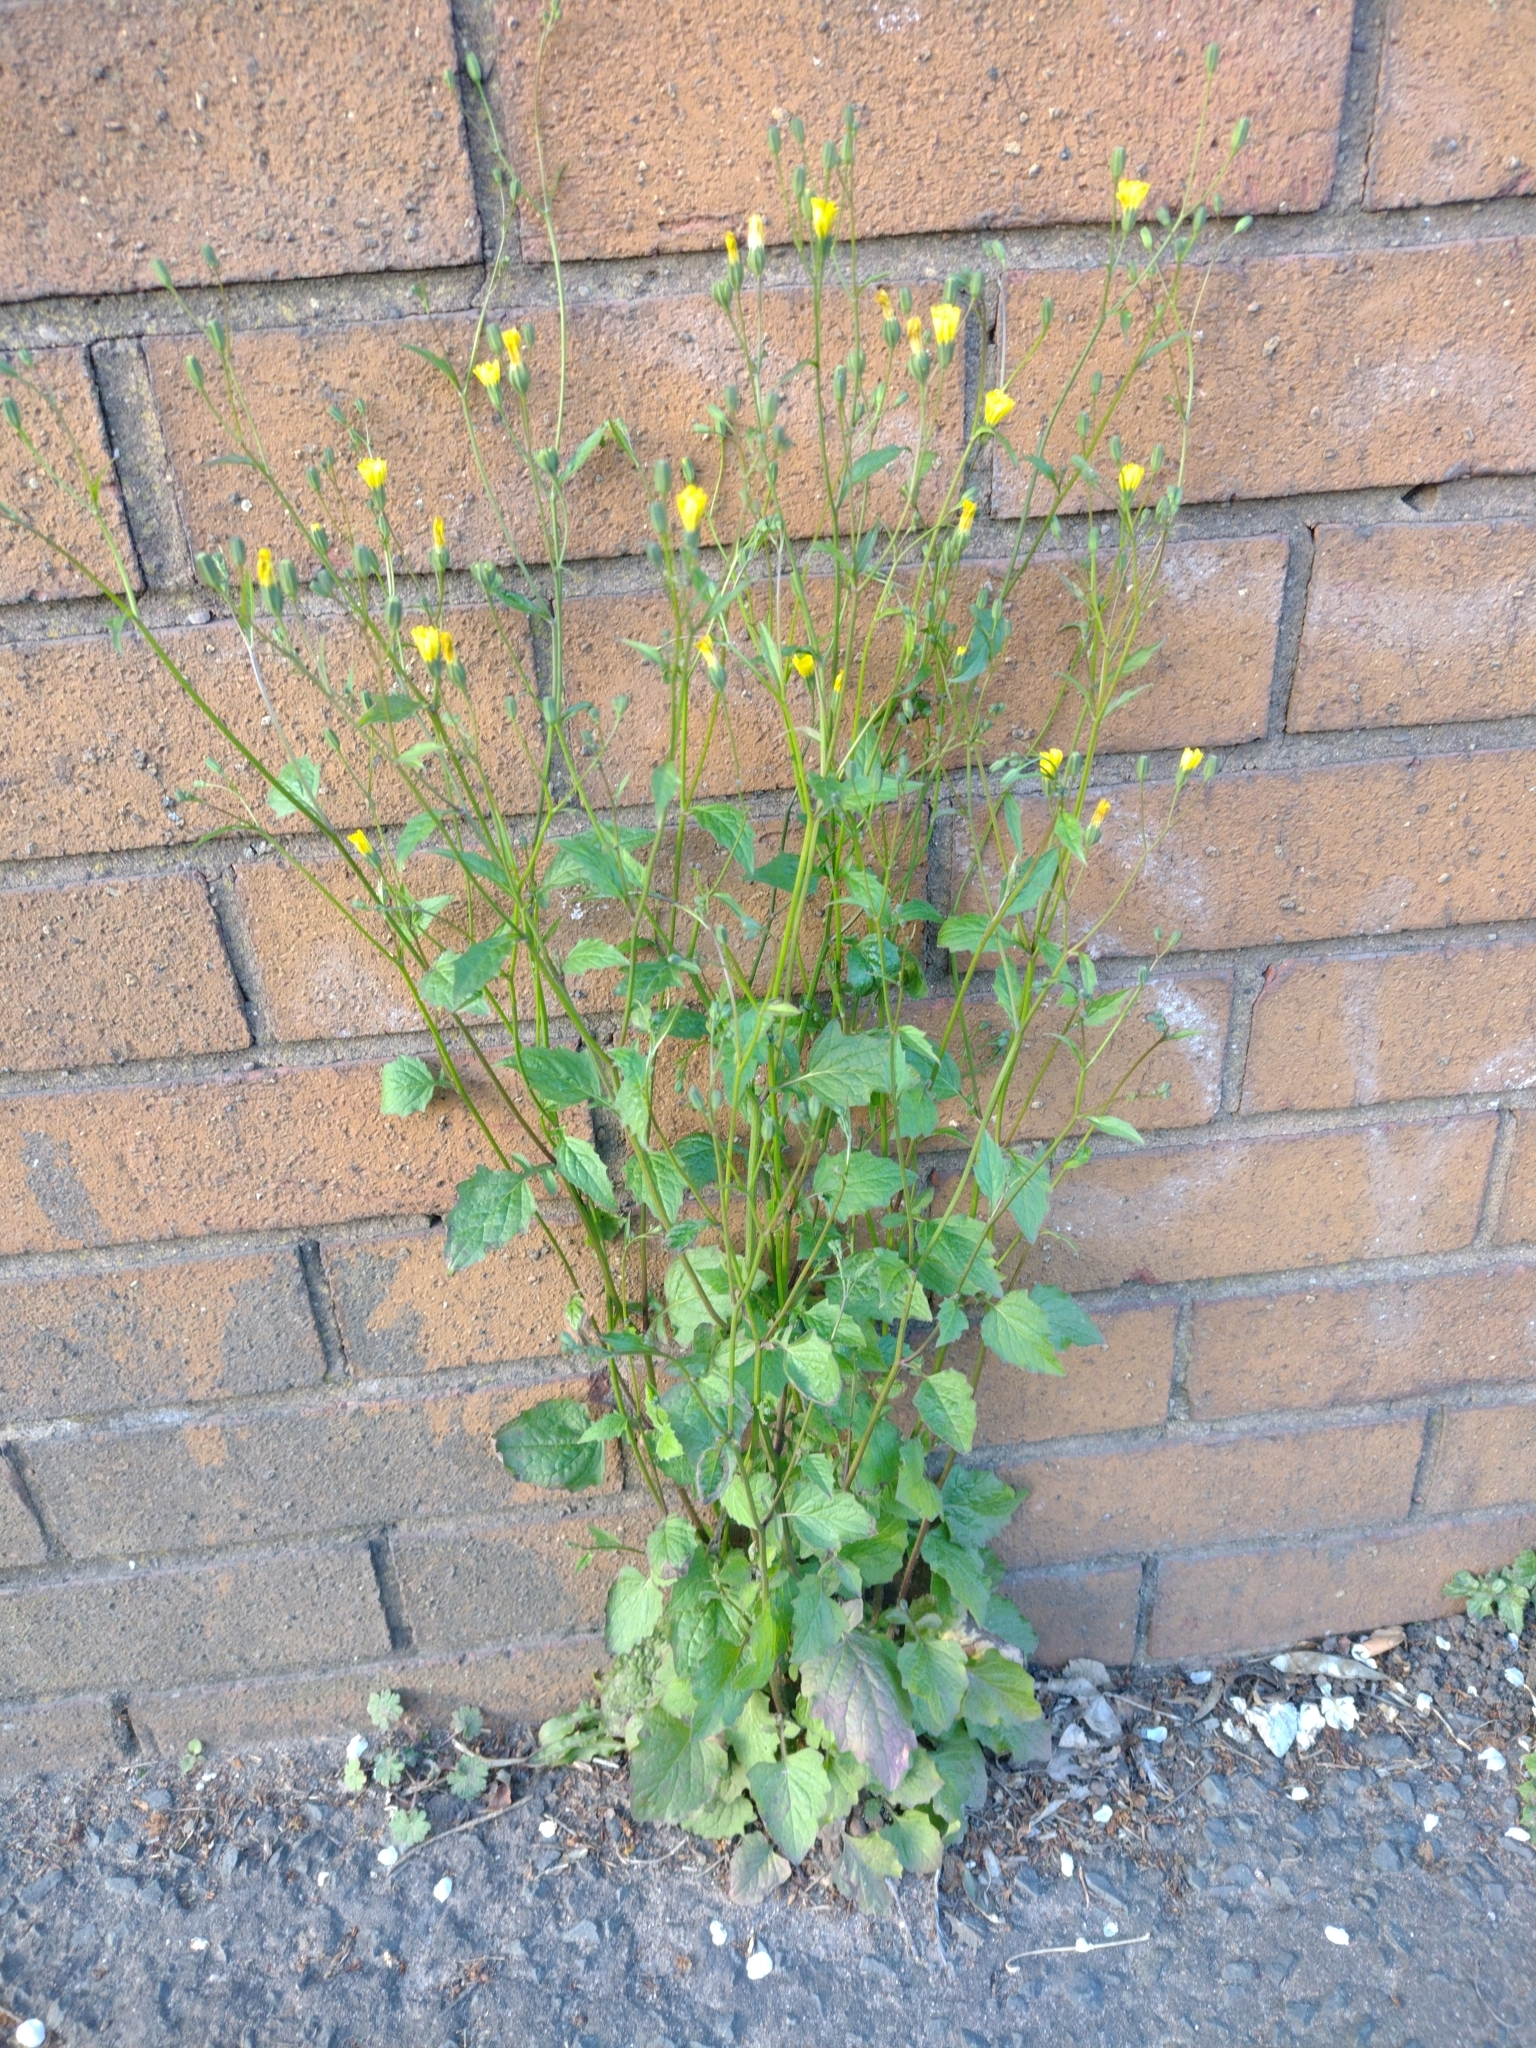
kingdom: Plantae
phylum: Tracheophyta
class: Magnoliopsida
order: Asterales
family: Asteraceae
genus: Lapsana
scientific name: Lapsana communis
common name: Nipplewort
